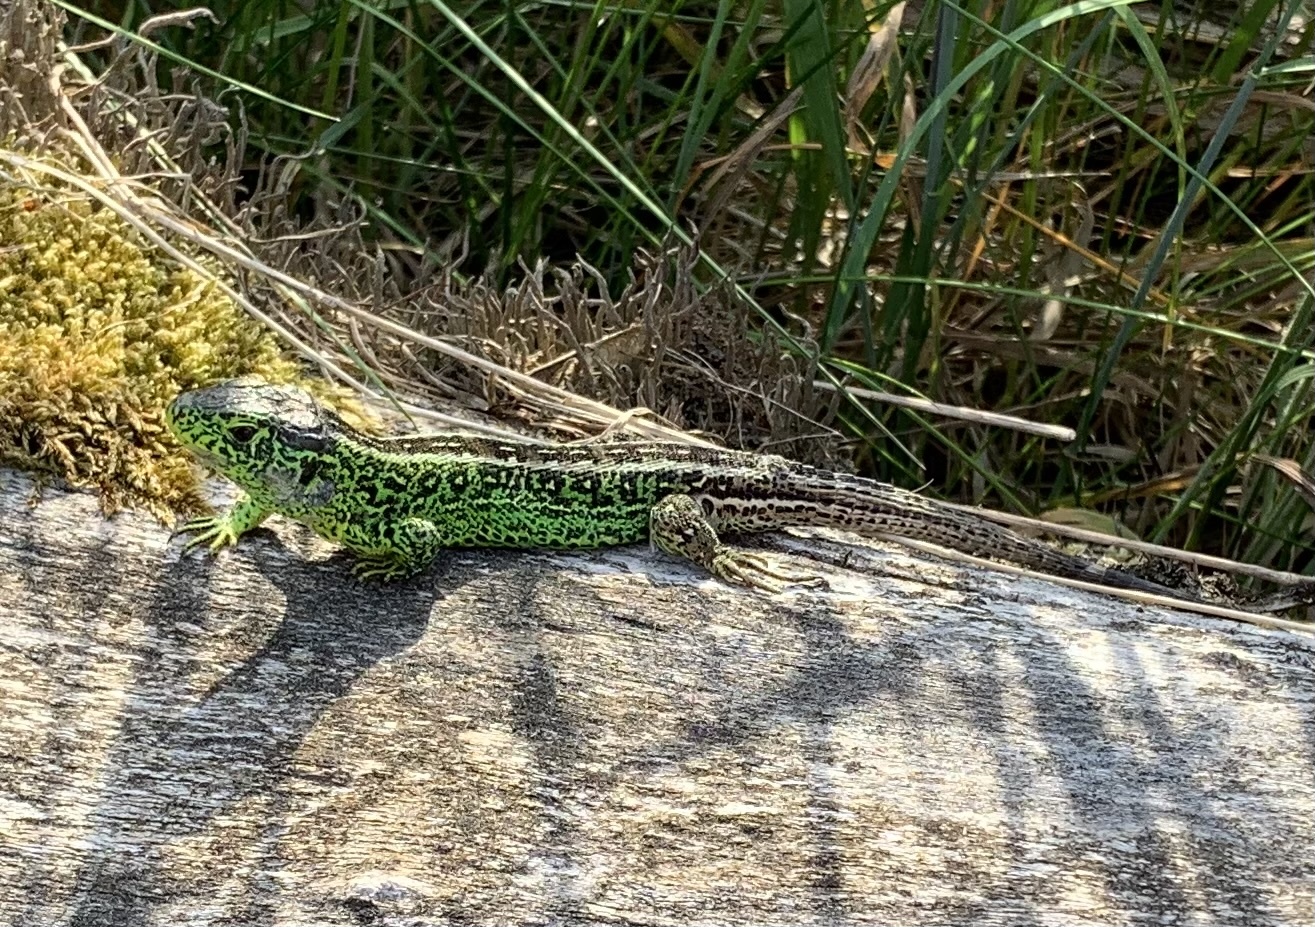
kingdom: Animalia
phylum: Chordata
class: Squamata
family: Lacertidae
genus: Lacerta
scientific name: Lacerta agilis
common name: Sand lizard
